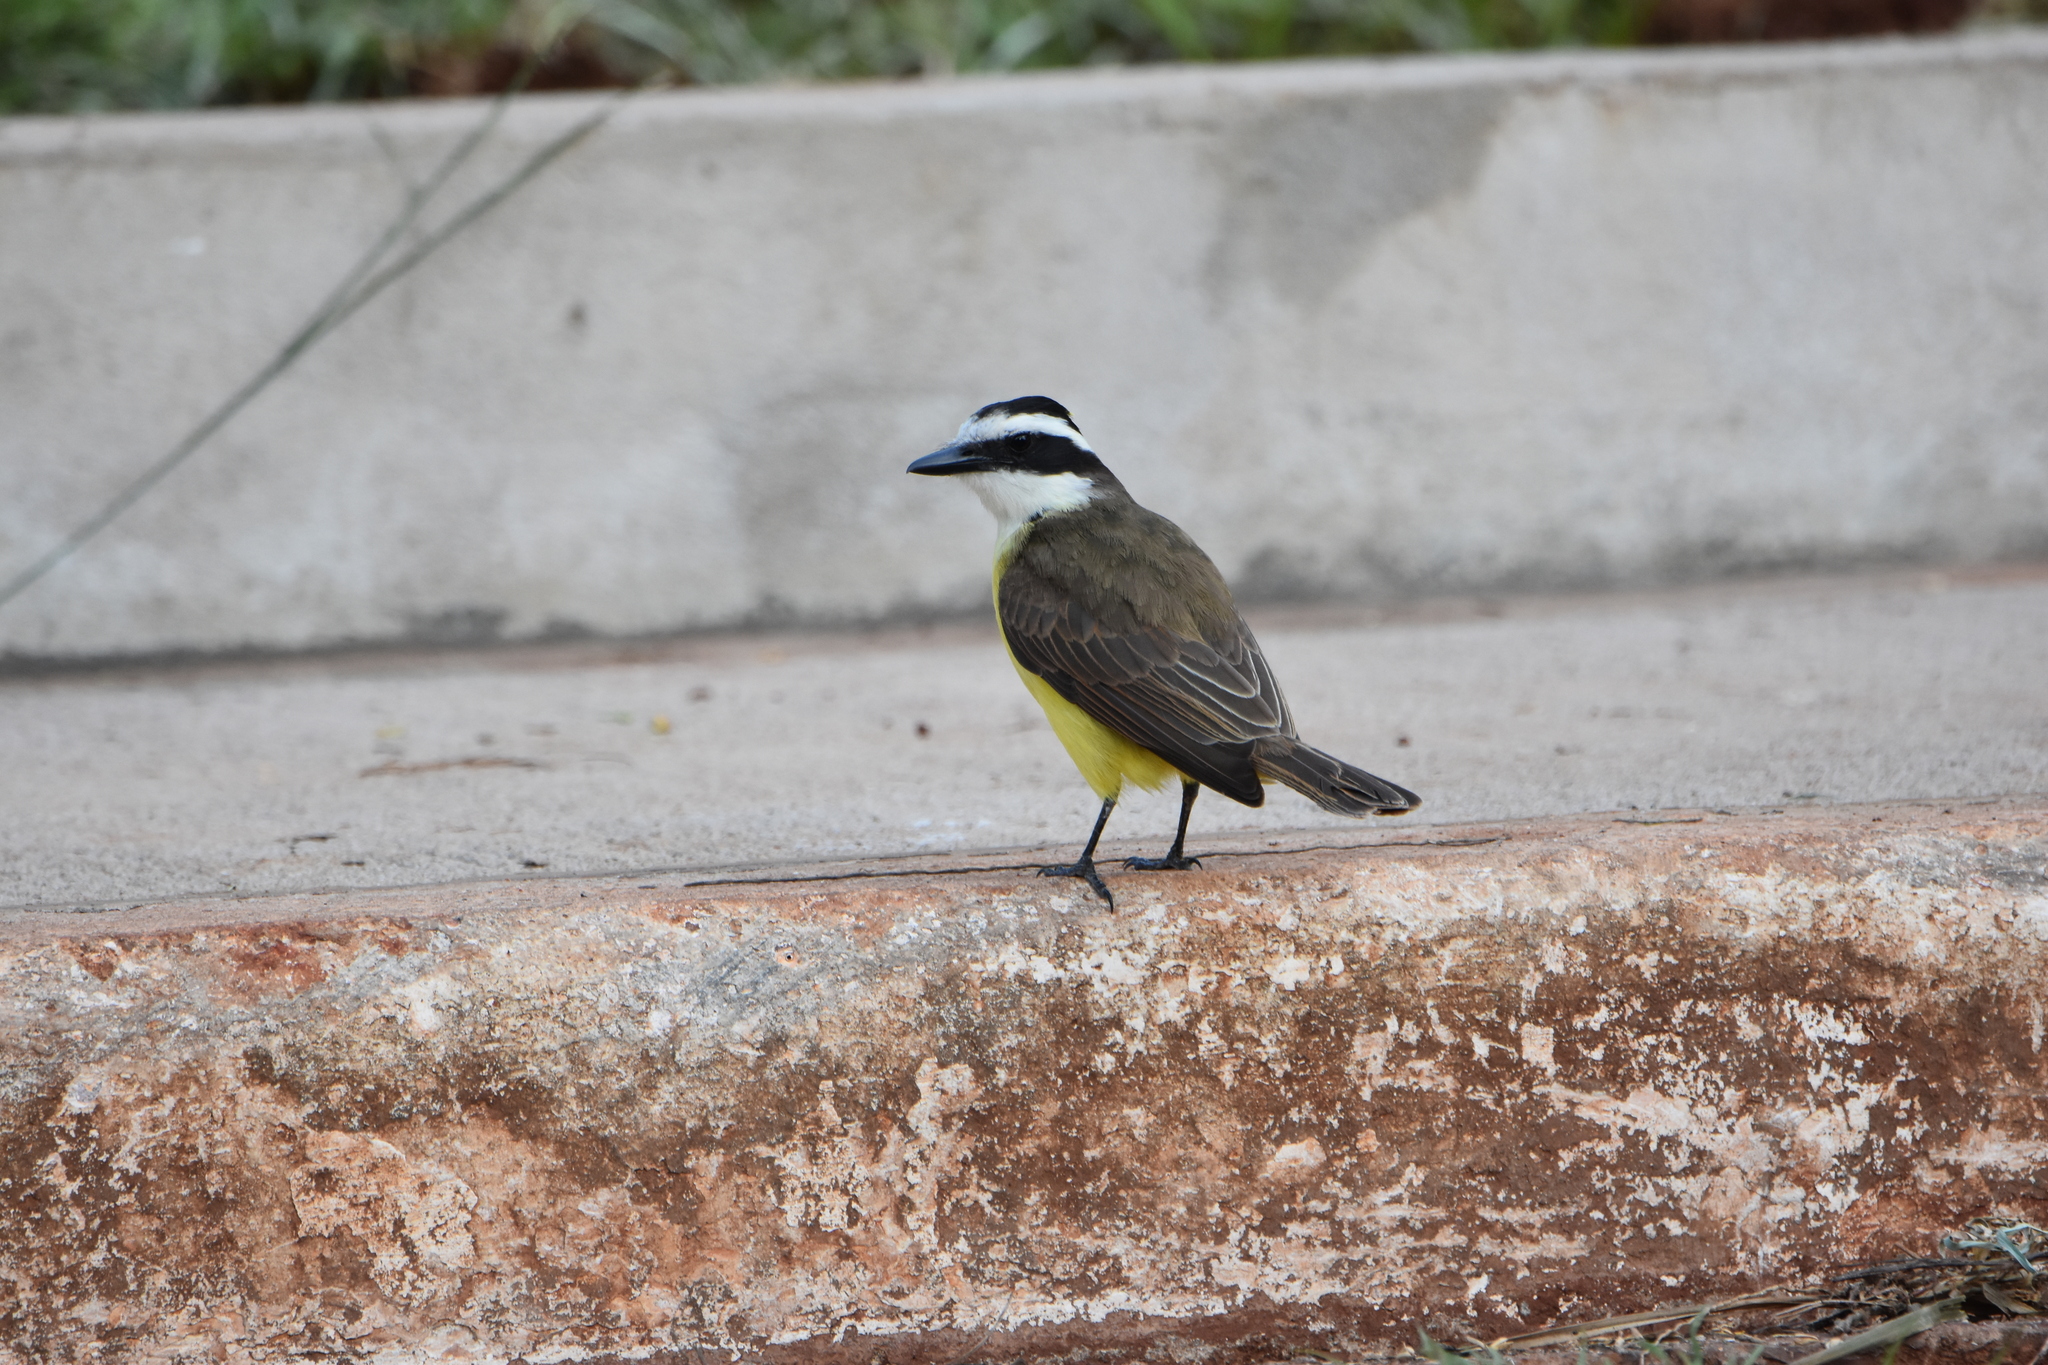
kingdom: Animalia
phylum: Chordata
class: Aves
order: Passeriformes
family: Tyrannidae
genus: Pitangus
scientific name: Pitangus sulphuratus
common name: Great kiskadee
